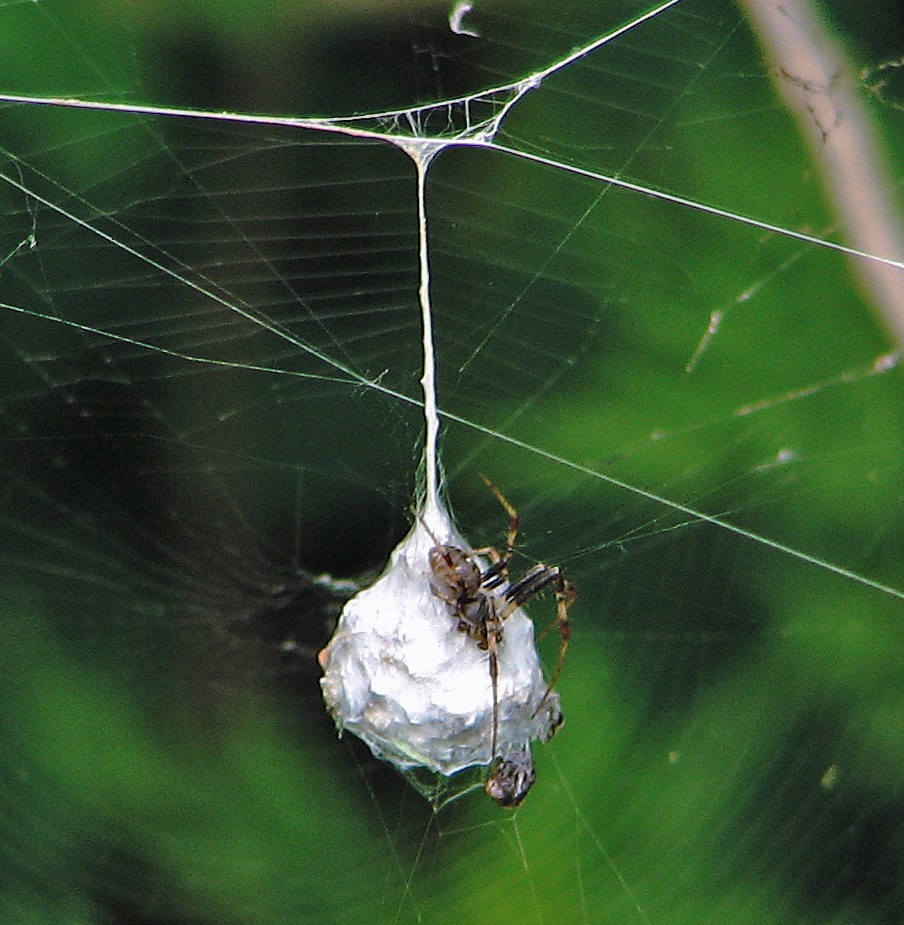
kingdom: Animalia
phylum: Arthropoda
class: Arachnida
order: Araneae
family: Araneidae
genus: Metepeira
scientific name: Metepeira
